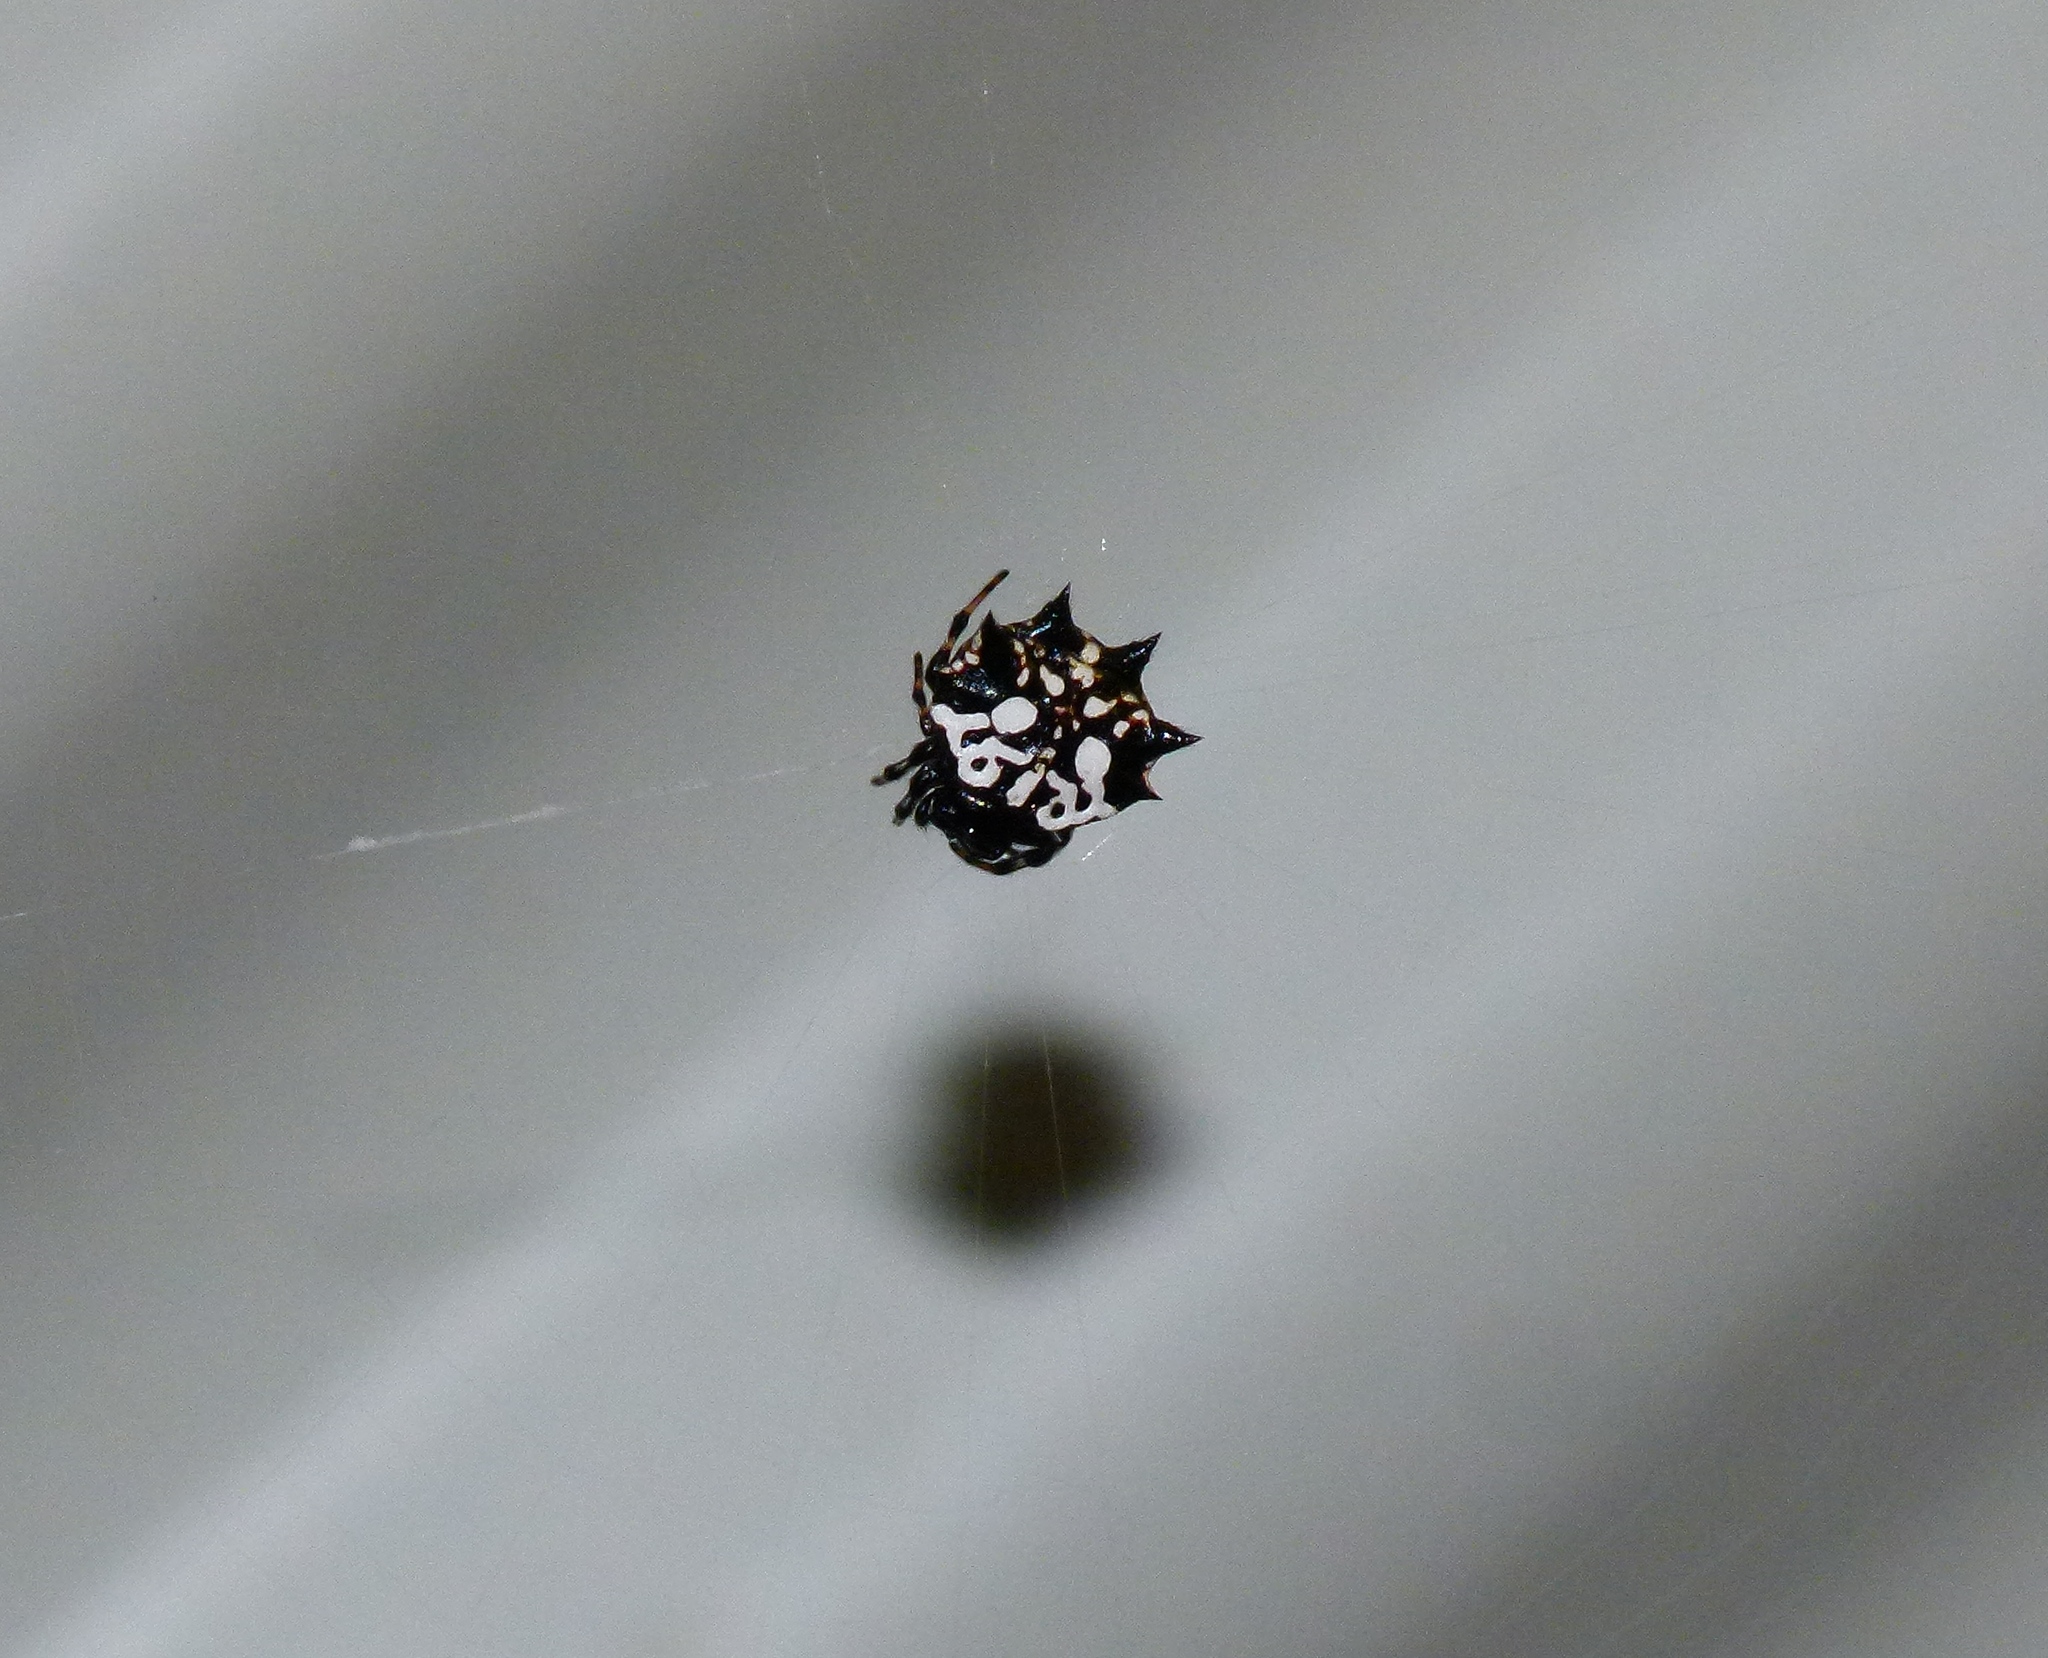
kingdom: Animalia
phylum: Arthropoda
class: Arachnida
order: Araneae
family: Araneidae
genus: Gasteracantha
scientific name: Gasteracantha sacerdotalis
